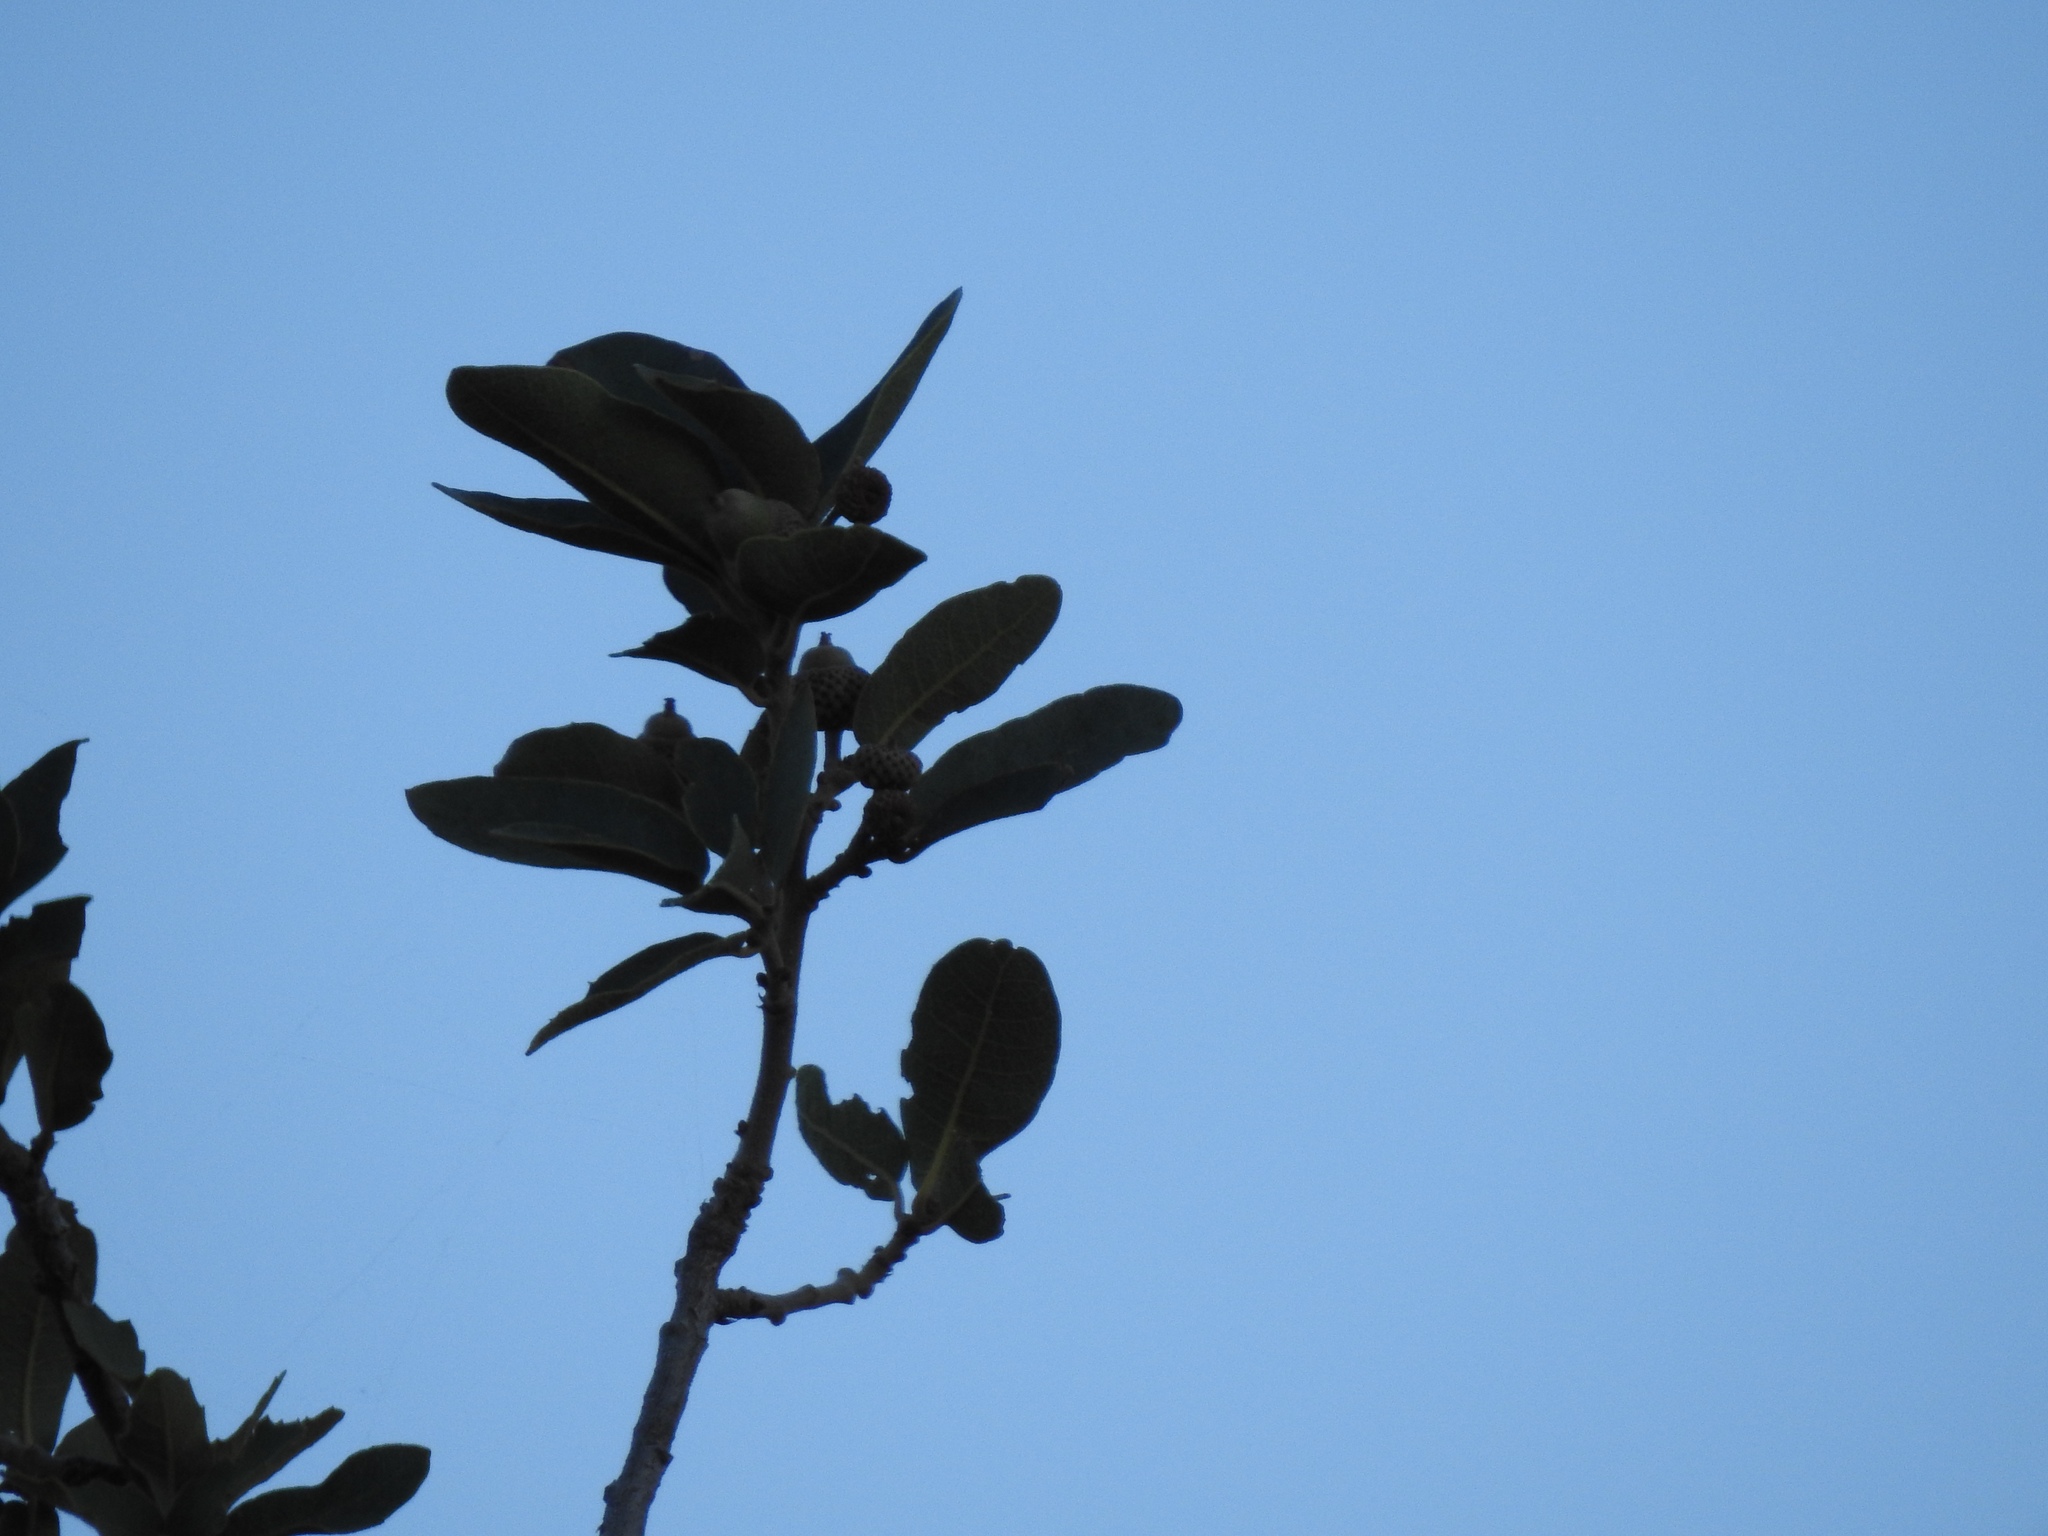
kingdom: Plantae
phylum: Tracheophyta
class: Magnoliopsida
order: Fagales
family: Fagaceae
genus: Quercus
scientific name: Quercus grisea
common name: Gray oak
